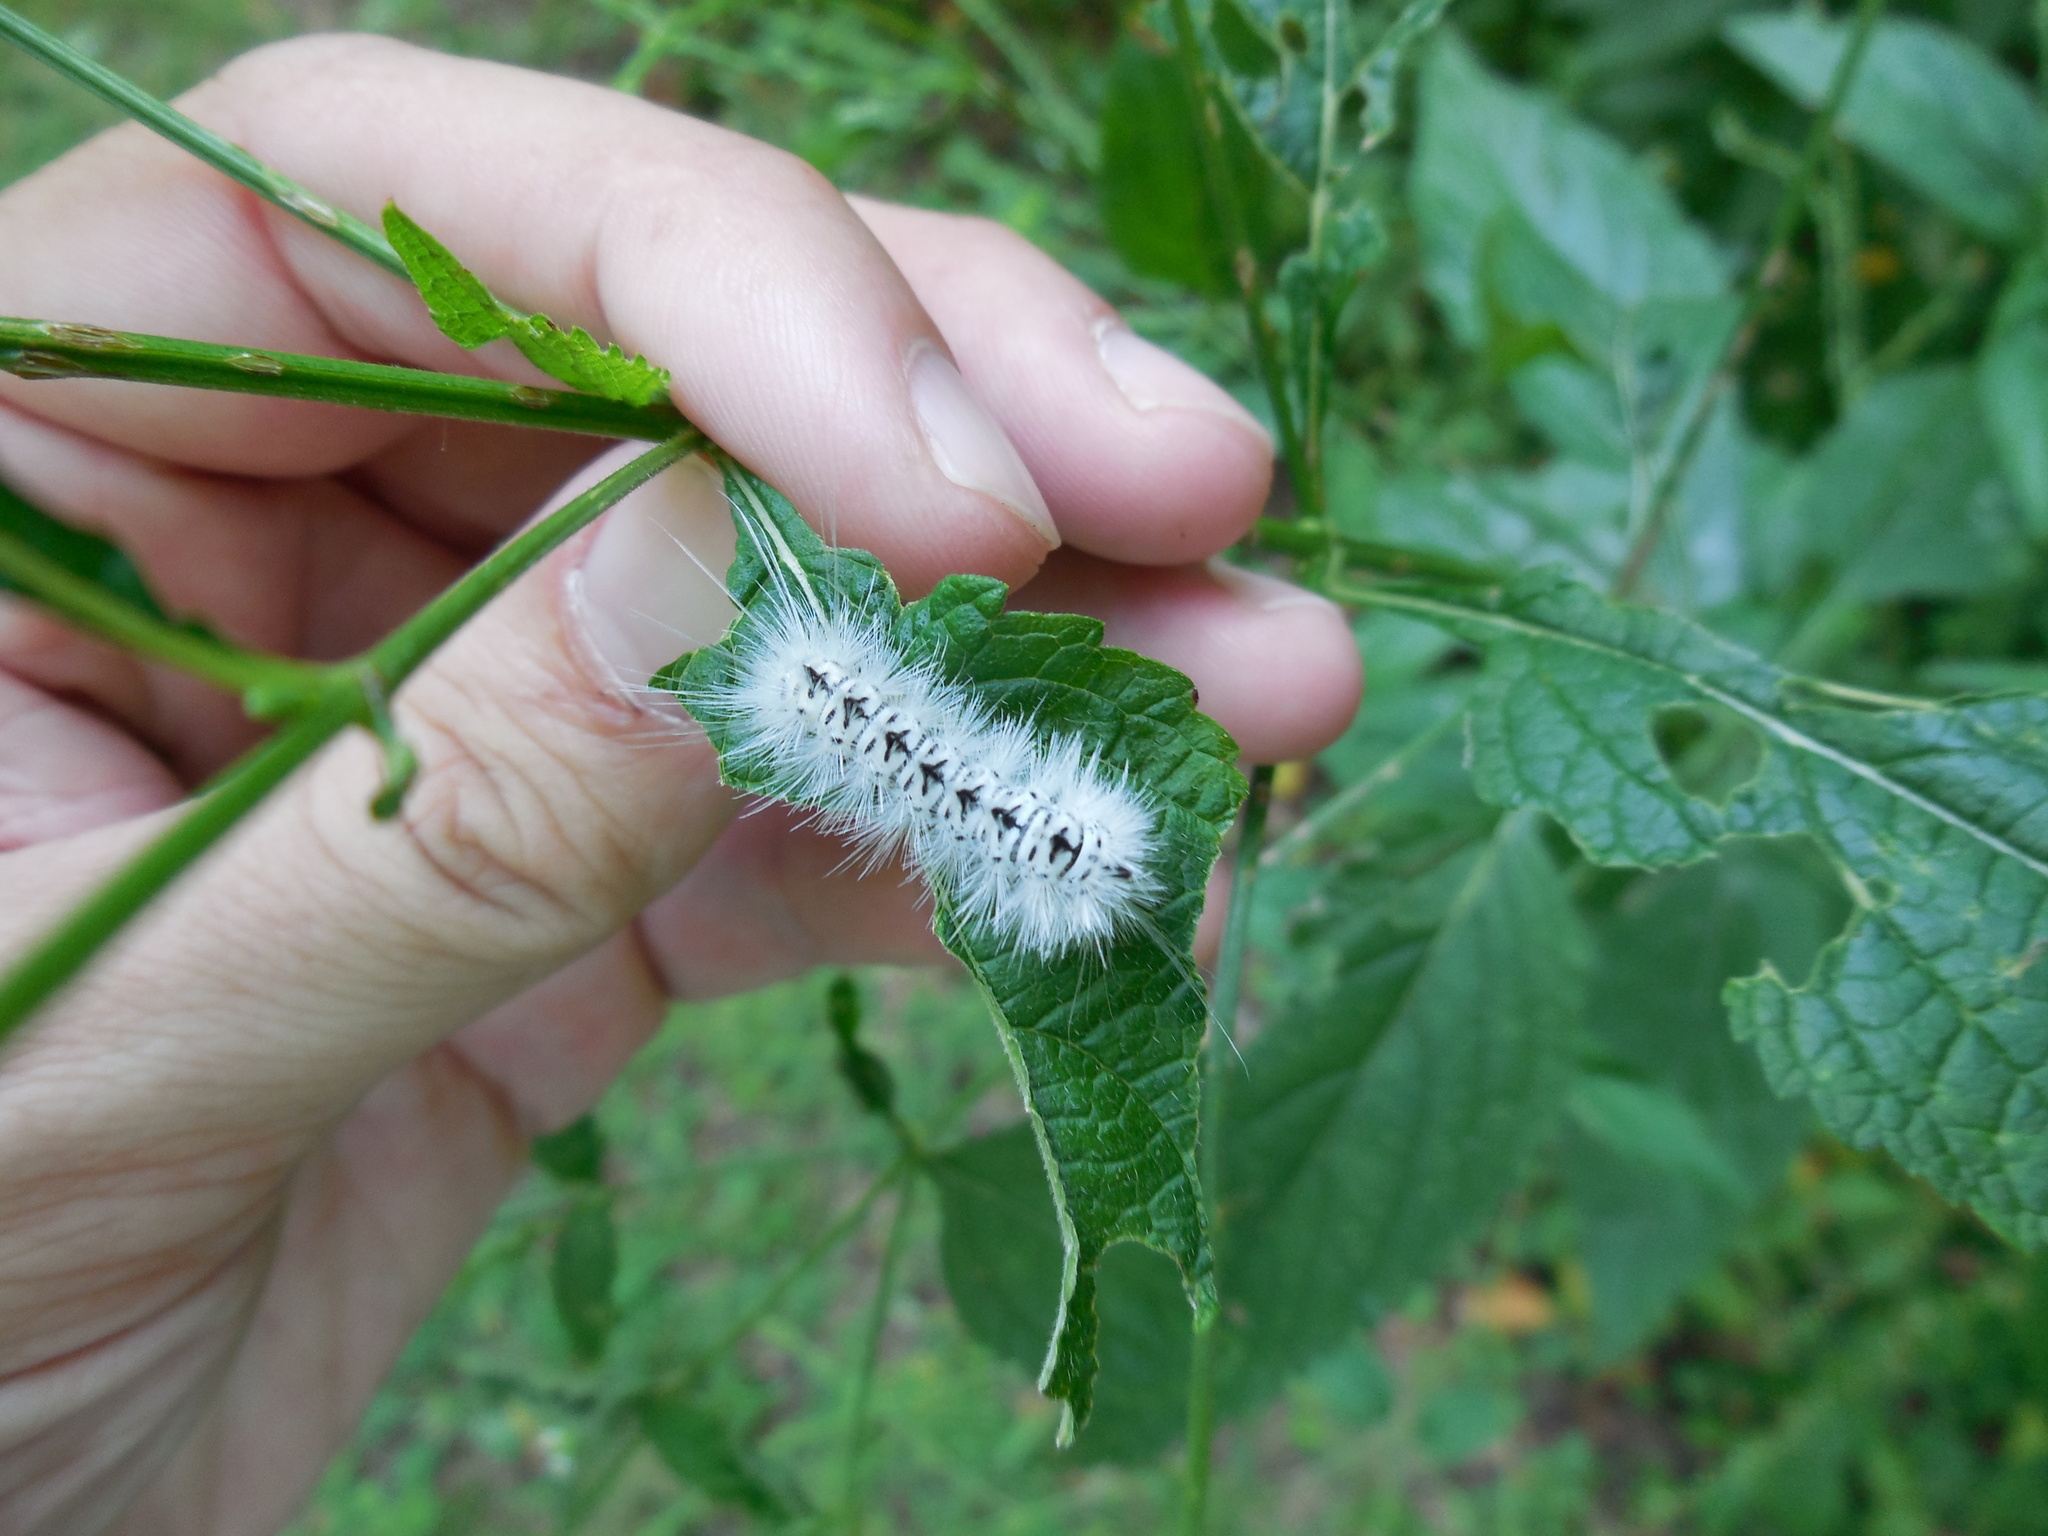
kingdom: Animalia
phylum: Arthropoda
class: Insecta
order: Lepidoptera
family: Erebidae
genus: Lophocampa
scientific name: Lophocampa caryae
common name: Hickory tussock moth
